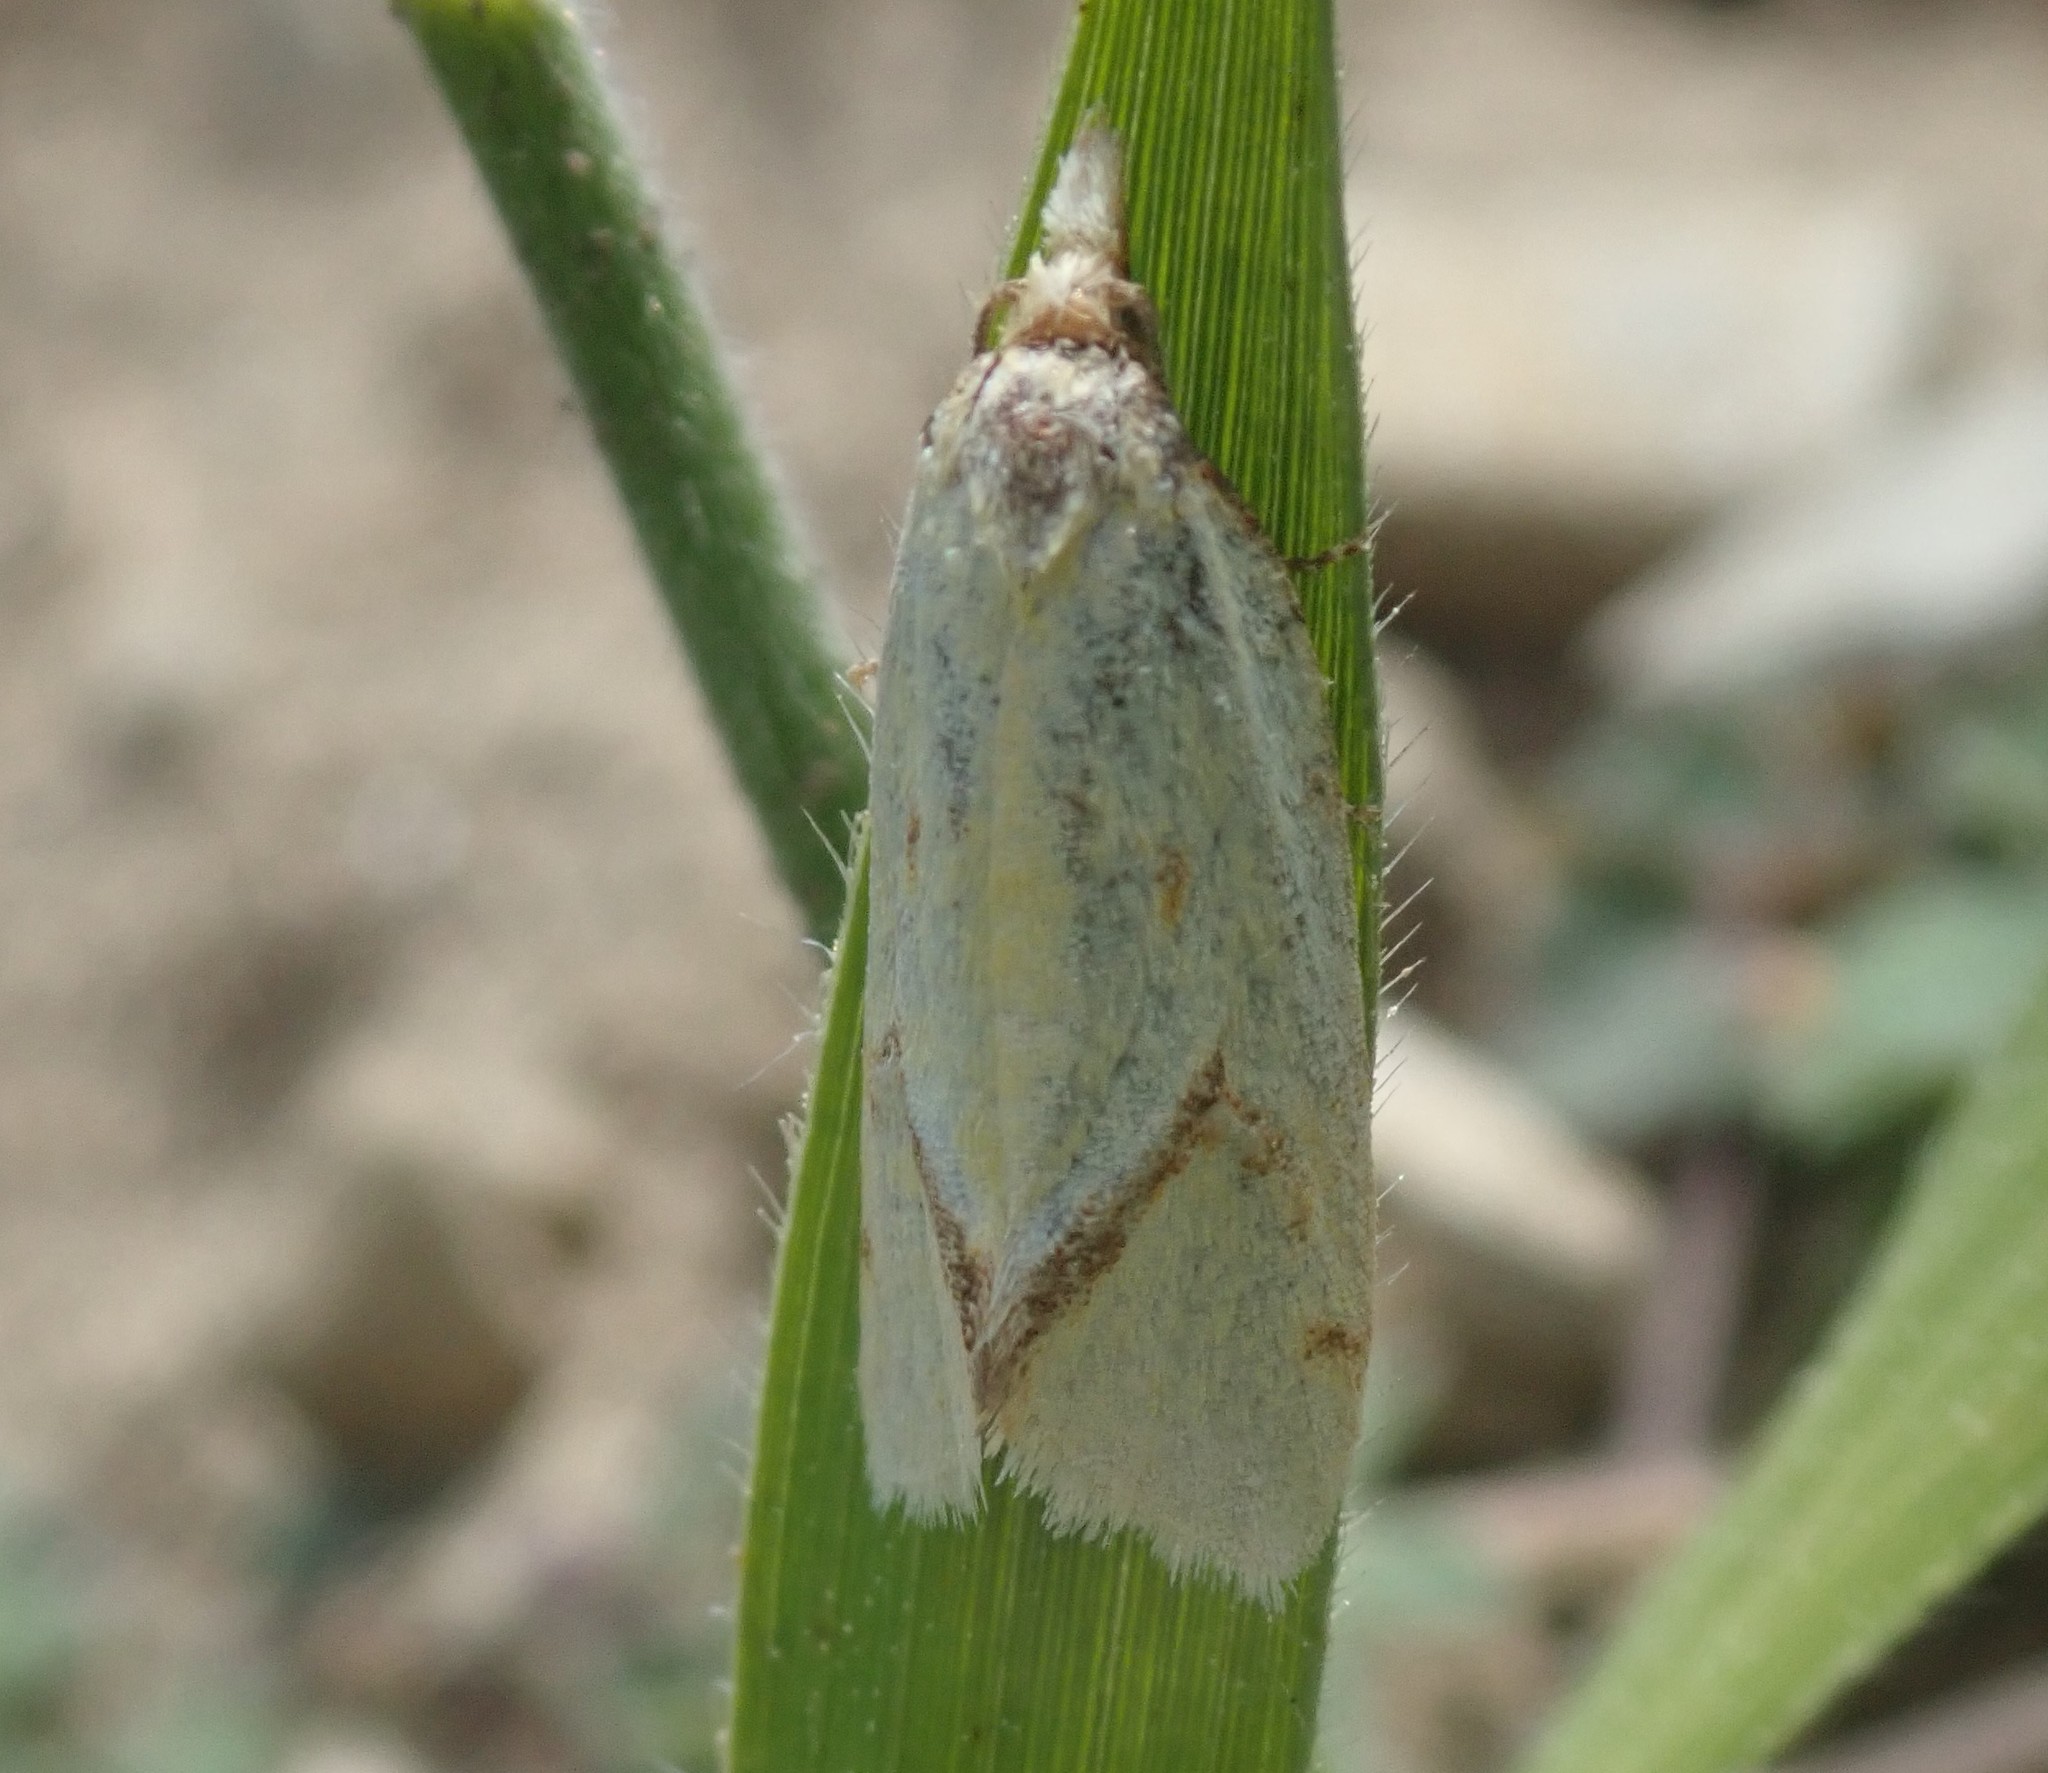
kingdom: Animalia
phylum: Arthropoda
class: Insecta
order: Lepidoptera
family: Tortricidae
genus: Agapeta
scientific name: Agapeta hamana
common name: Common yellow conch
